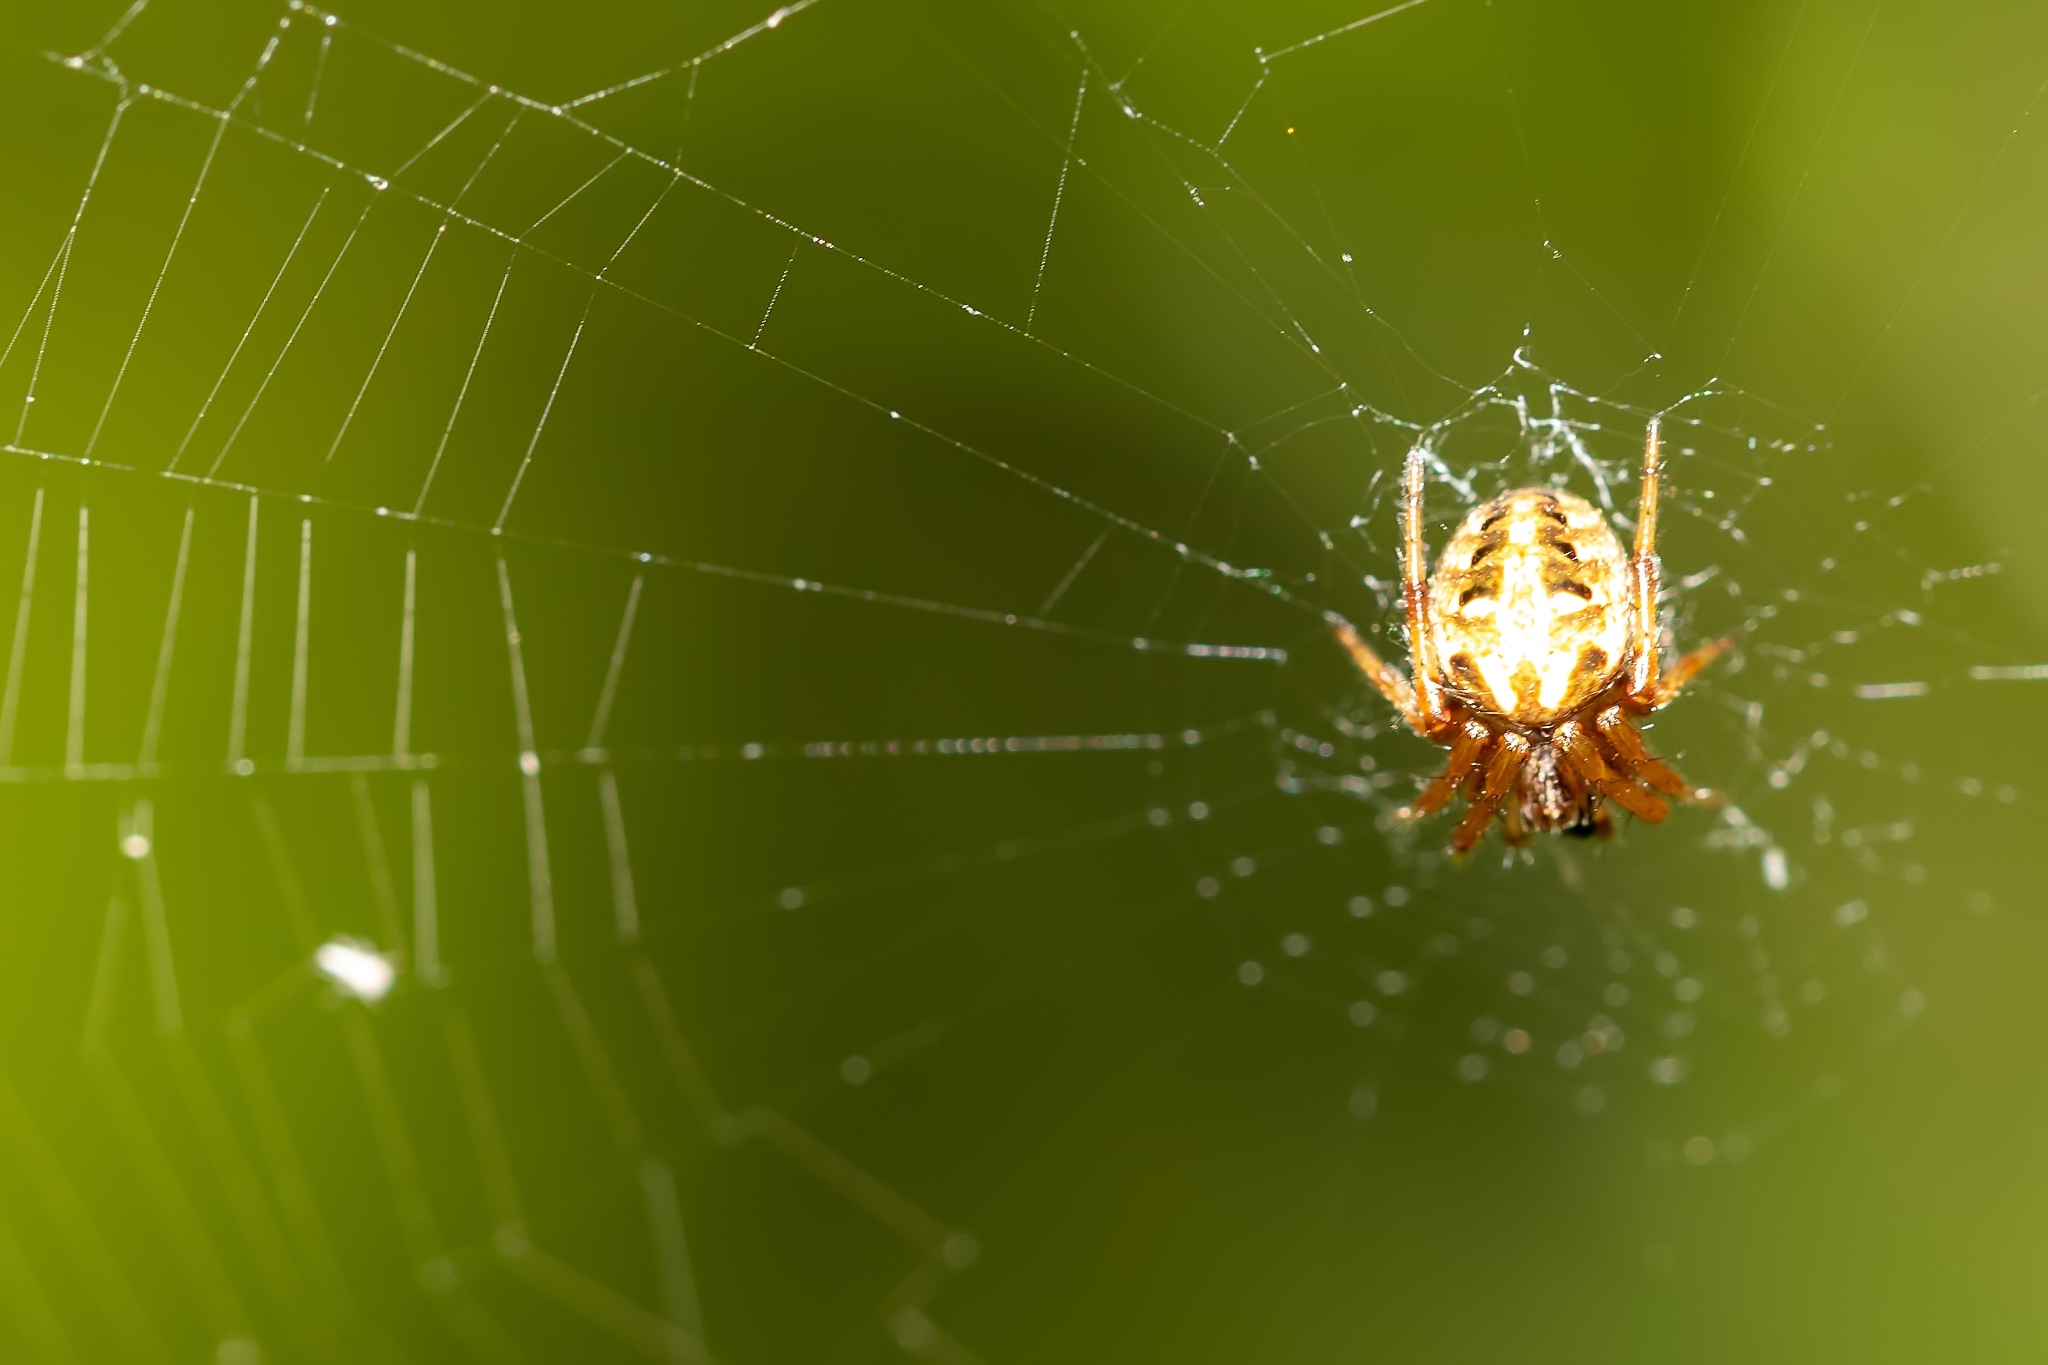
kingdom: Animalia
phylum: Arthropoda
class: Arachnida
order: Araneae
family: Araneidae
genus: Neoscona
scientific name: Neoscona arabesca
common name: Orb weavers
